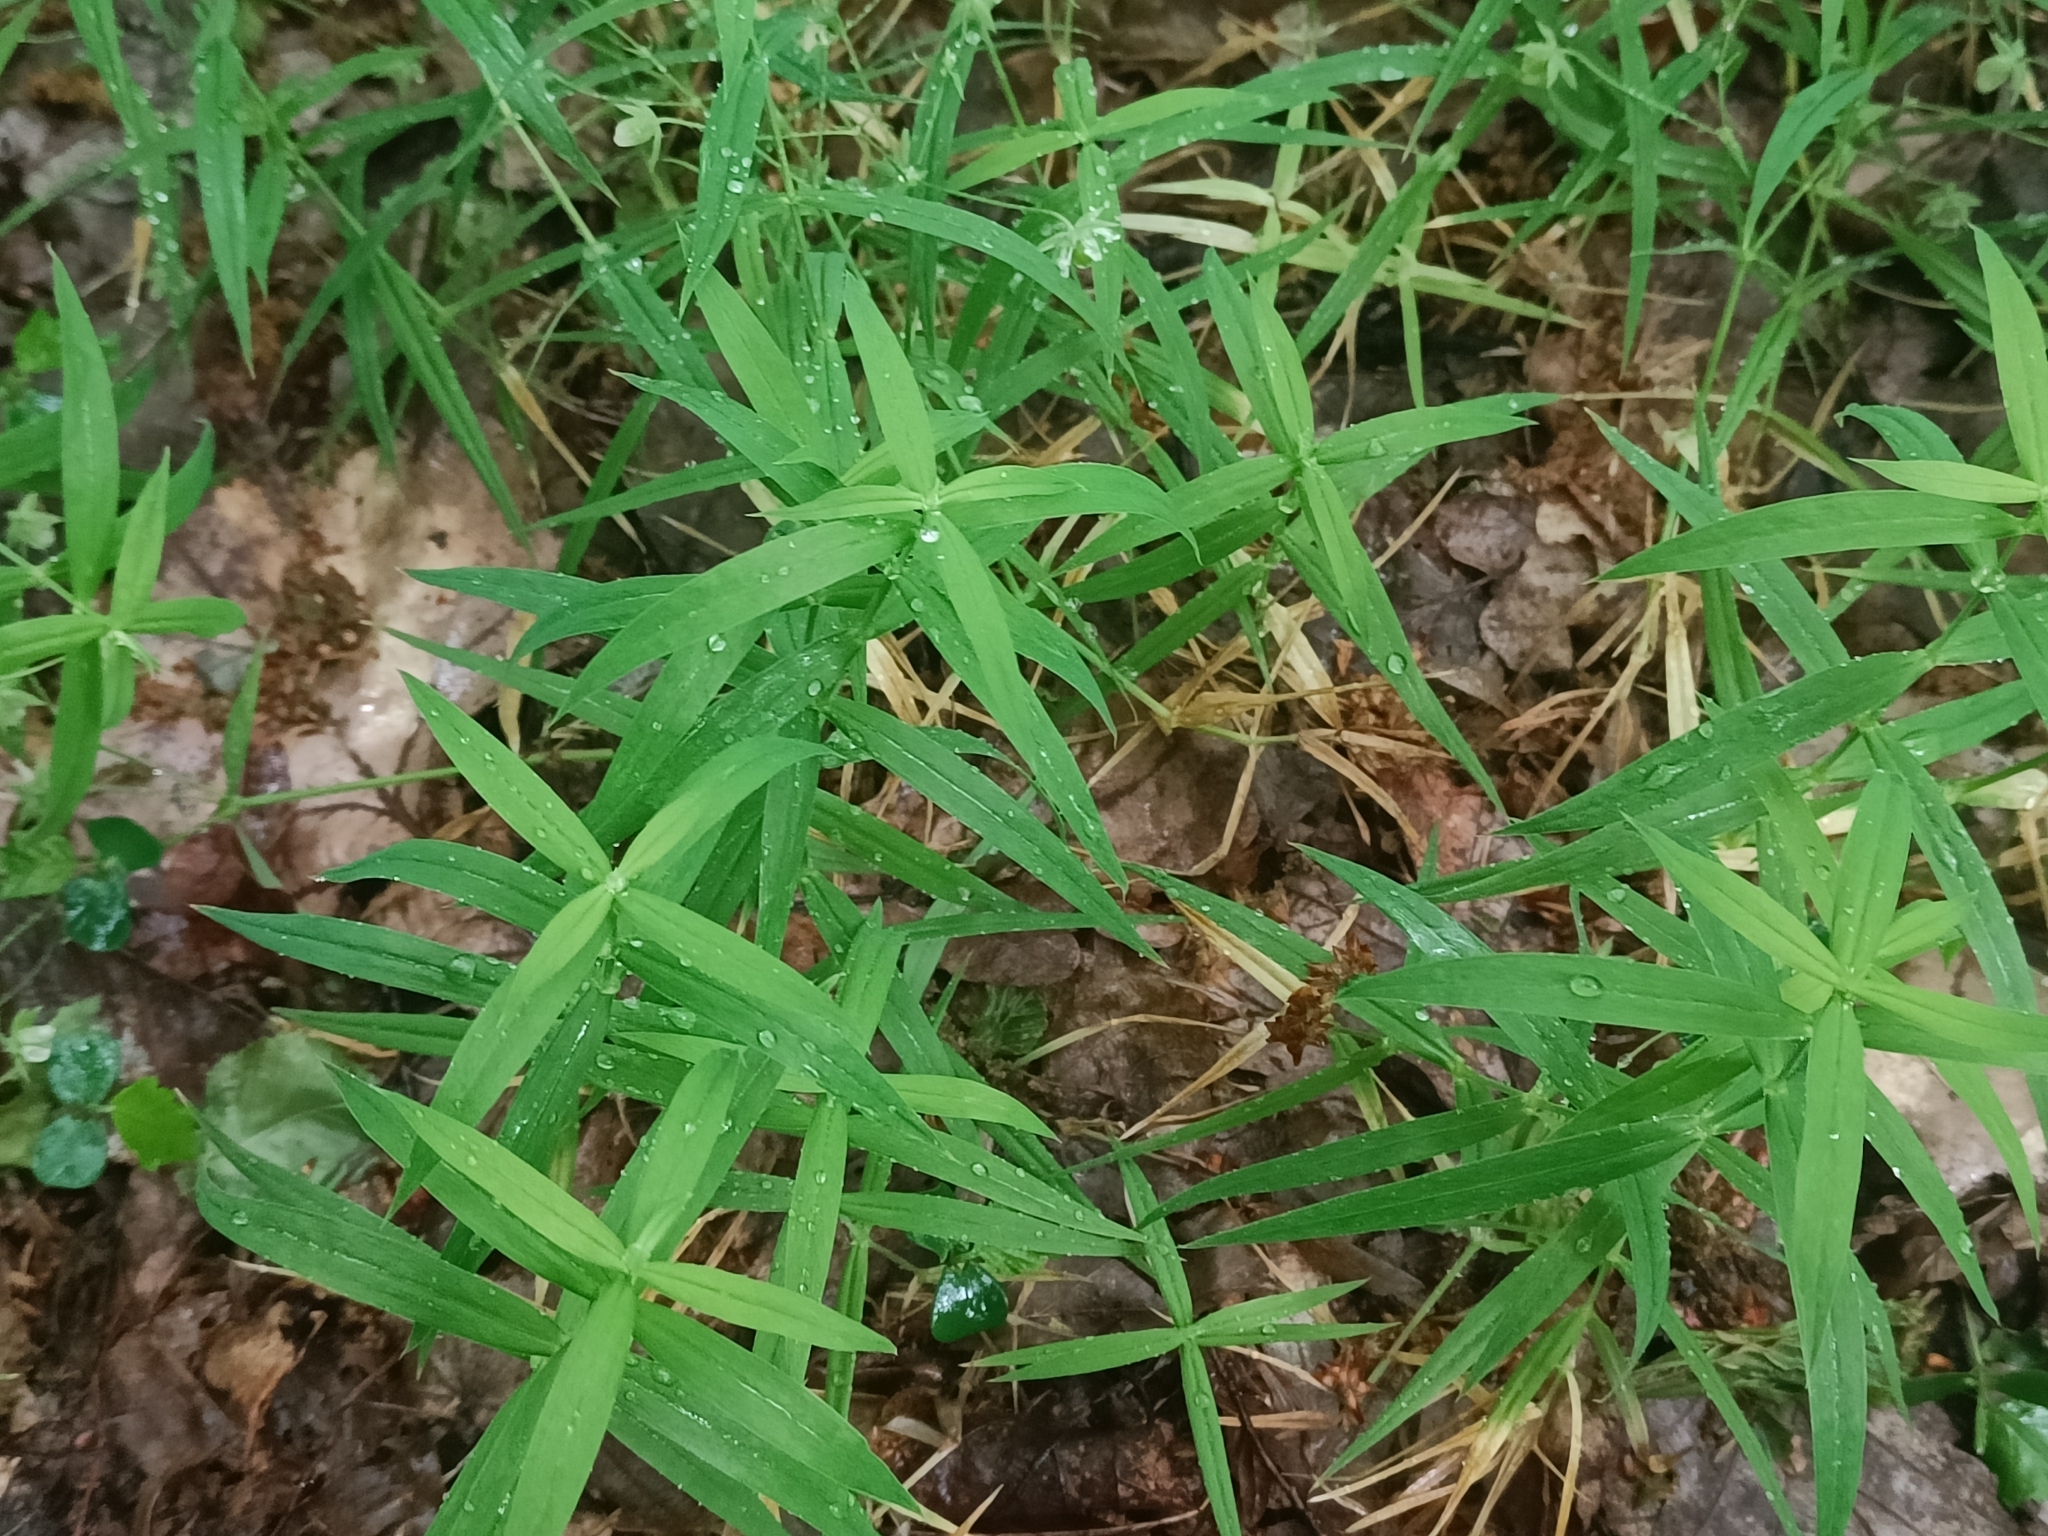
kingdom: Plantae
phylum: Tracheophyta
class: Magnoliopsida
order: Caryophyllales
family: Caryophyllaceae
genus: Rabelera
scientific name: Rabelera holostea
